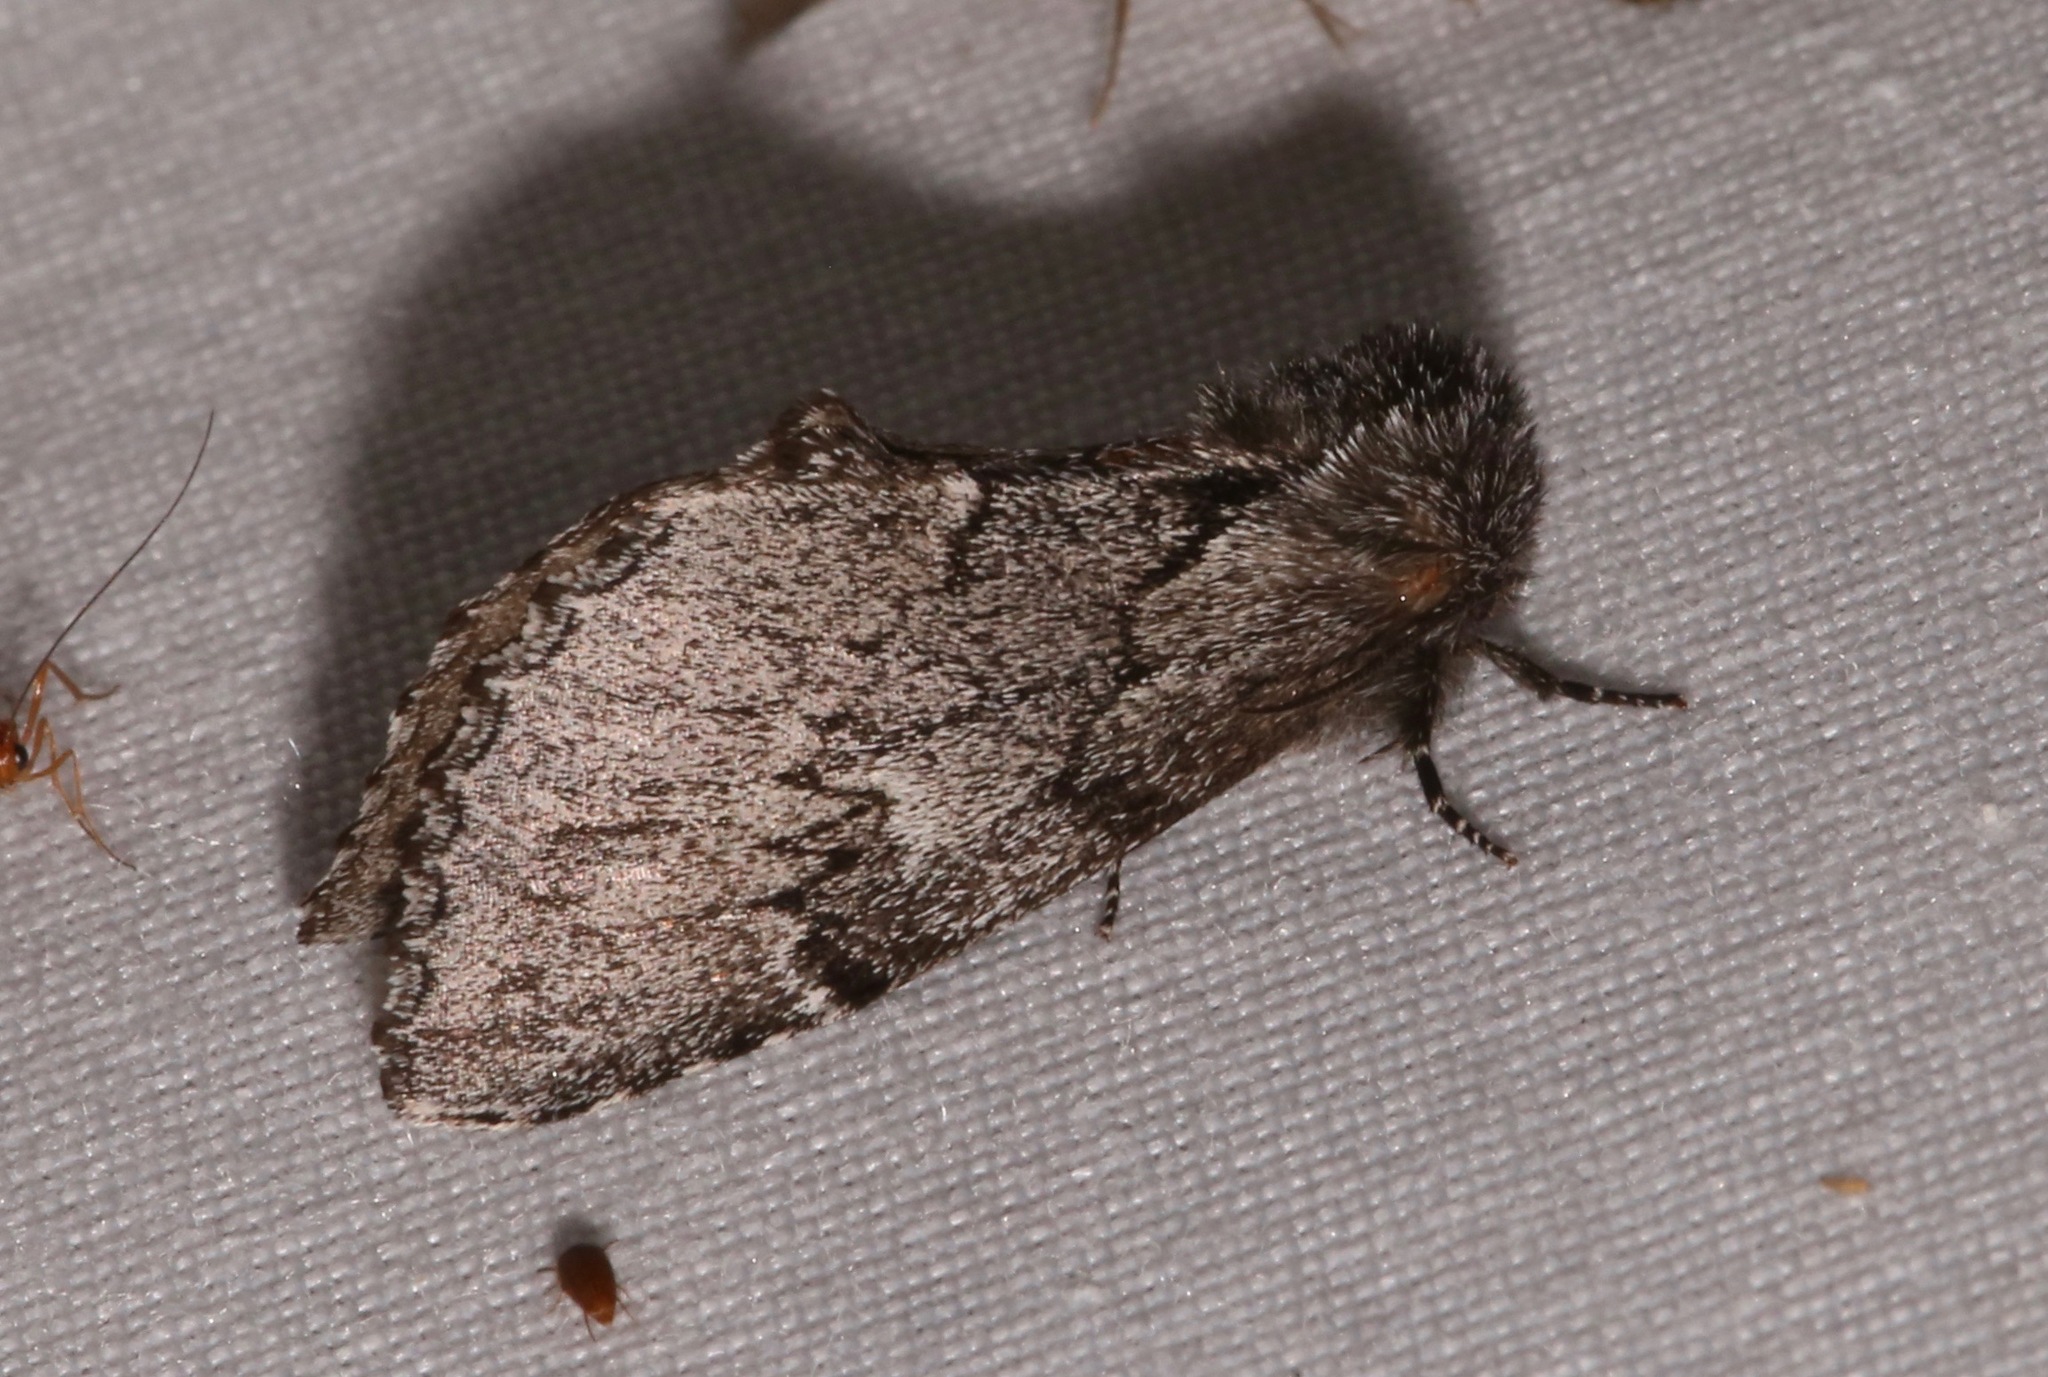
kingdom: Animalia
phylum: Arthropoda
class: Insecta
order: Lepidoptera
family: Notodontidae
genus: Cargida
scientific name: Cargida pyrrha
